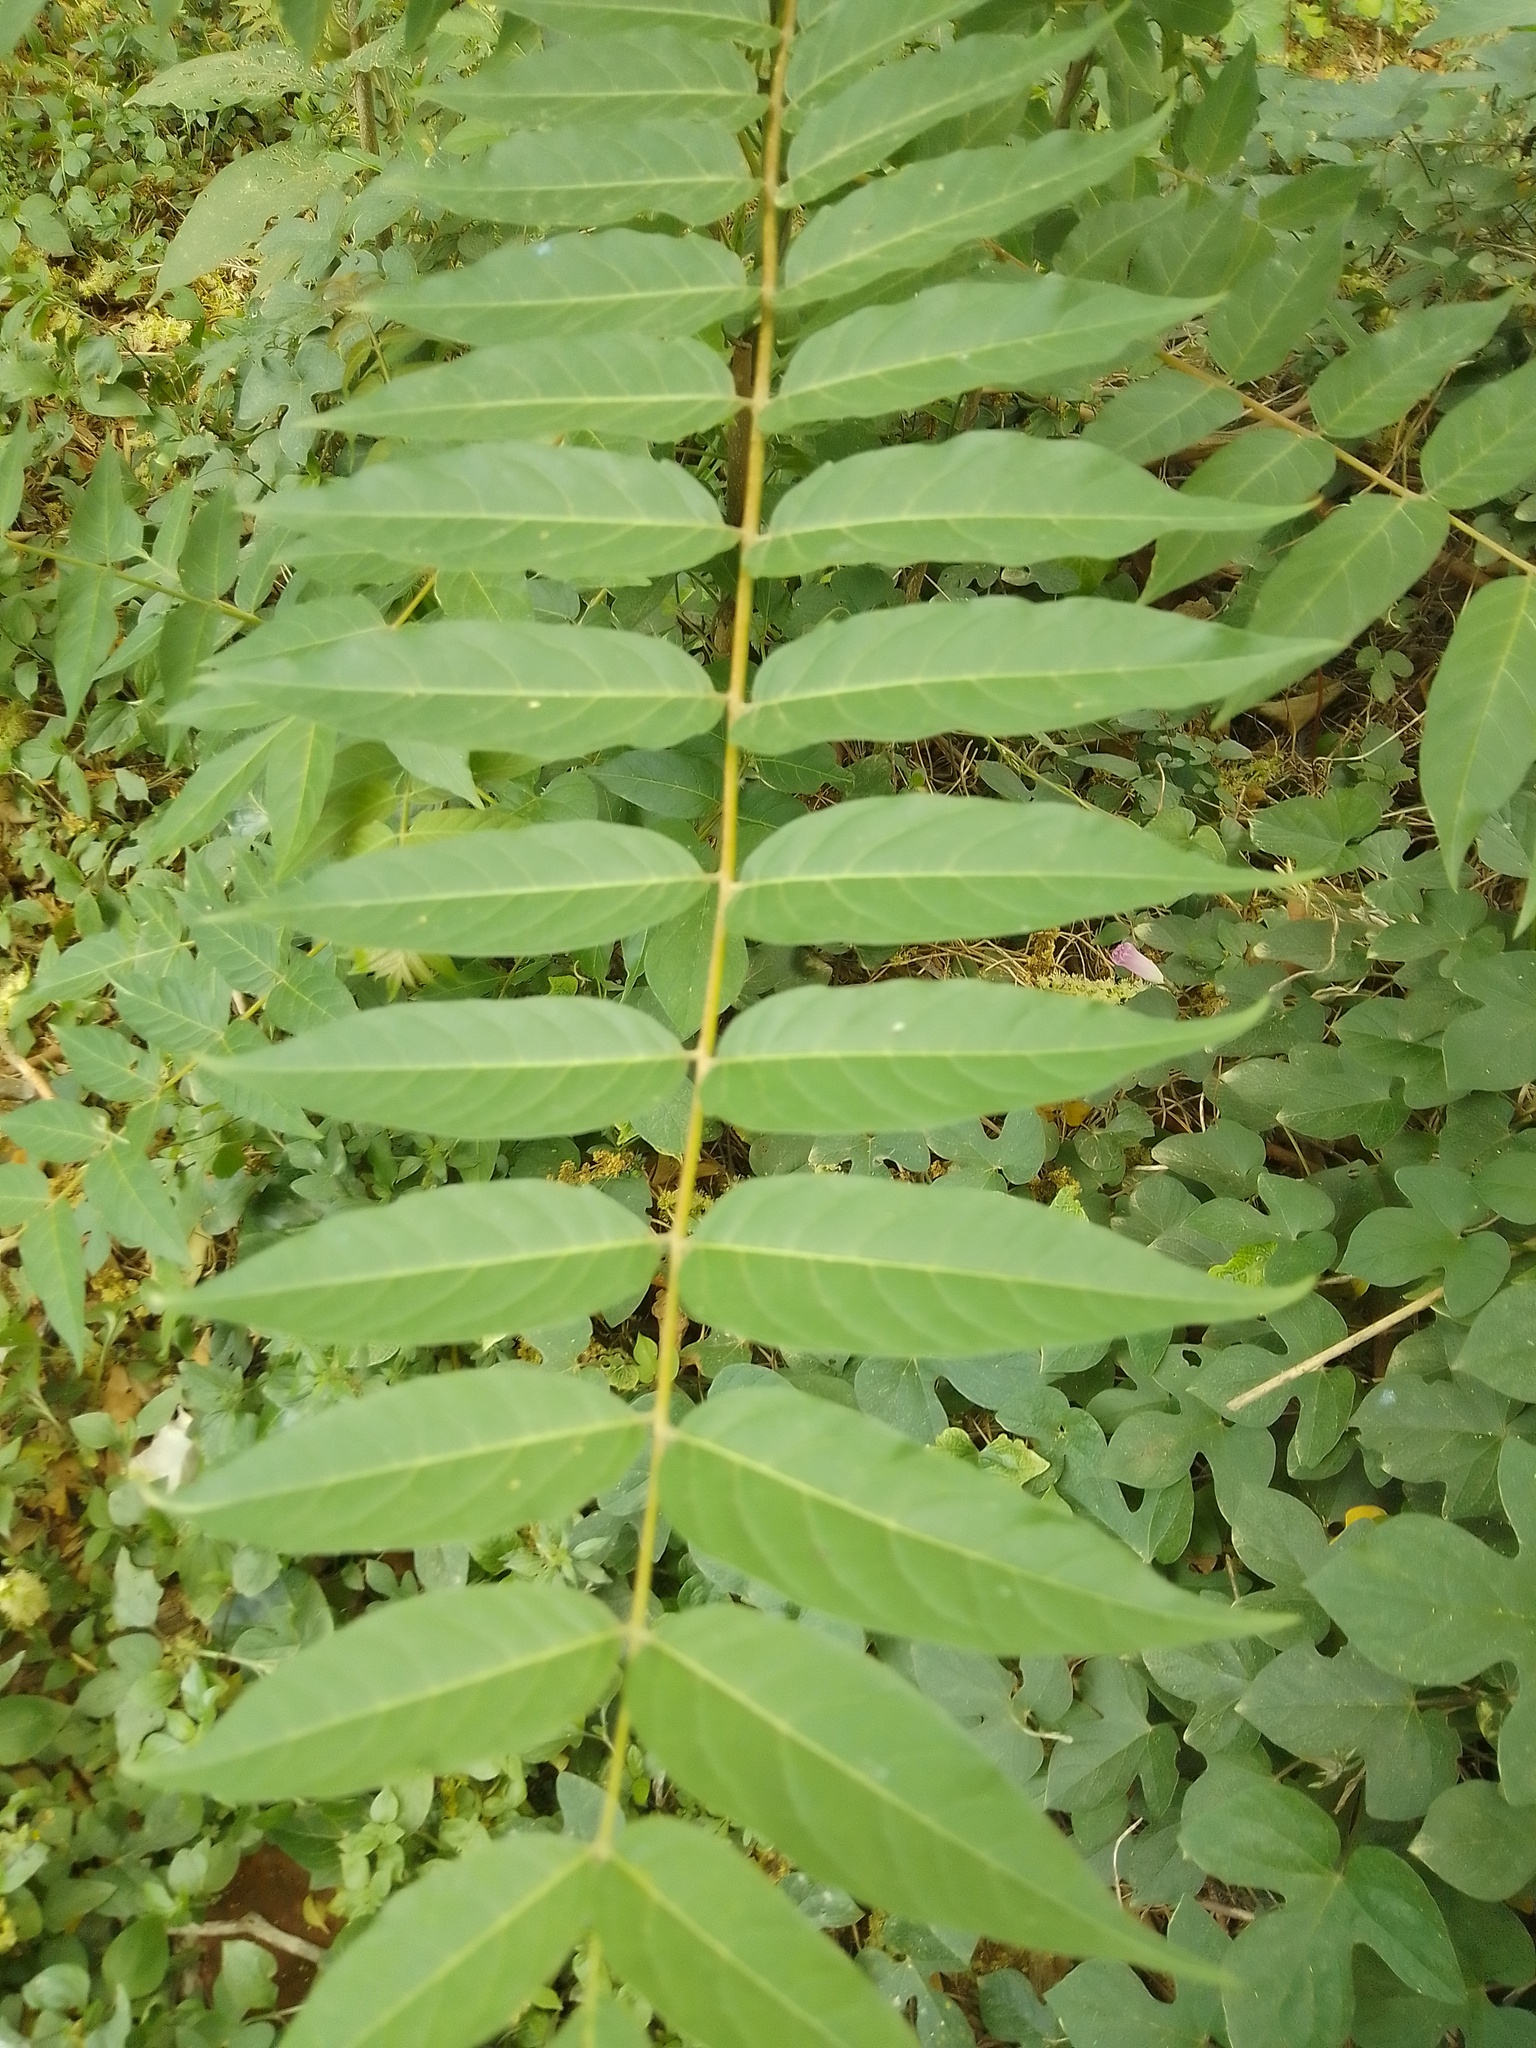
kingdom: Plantae
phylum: Tracheophyta
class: Magnoliopsida
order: Sapindales
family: Simaroubaceae
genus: Ailanthus
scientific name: Ailanthus altissima
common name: Tree-of-heaven
